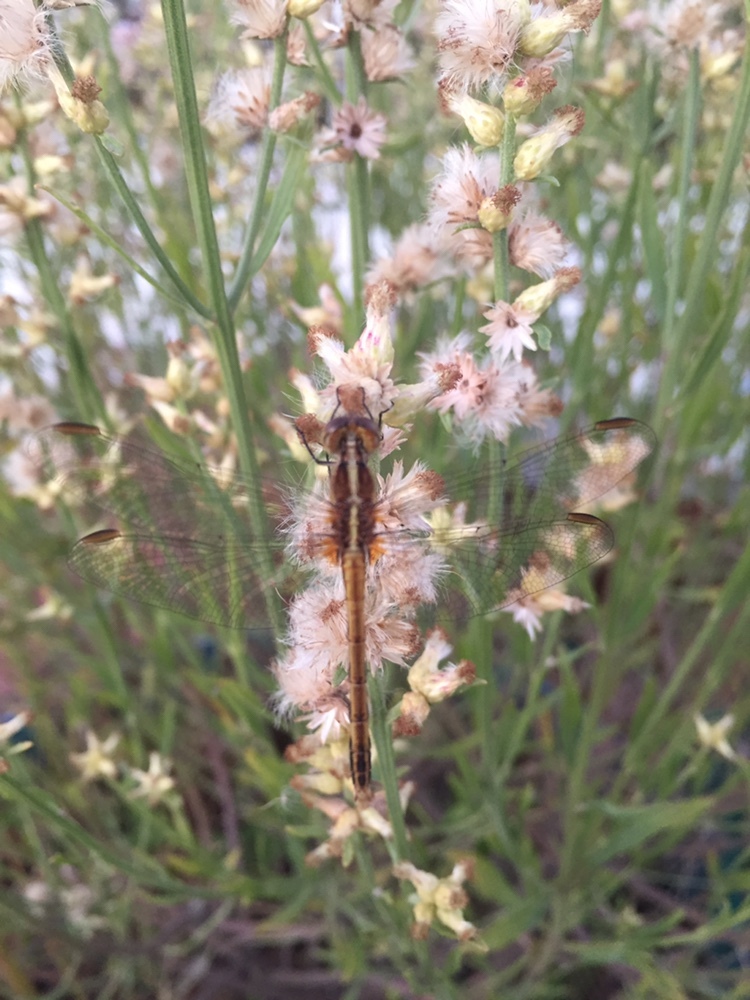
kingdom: Animalia
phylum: Arthropoda
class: Insecta
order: Odonata
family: Libellulidae
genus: Erythrodiplax
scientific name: Erythrodiplax nigricans
